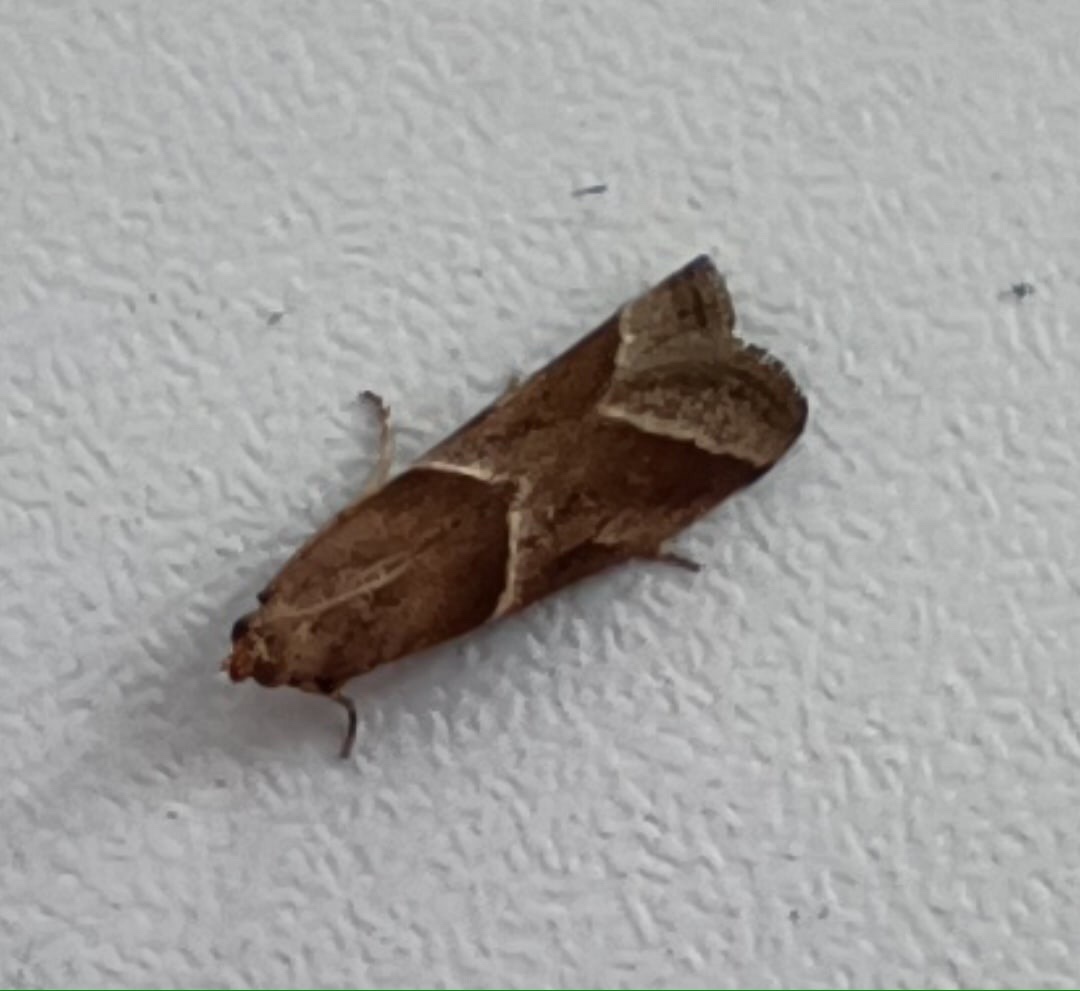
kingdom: Animalia
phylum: Arthropoda
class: Insecta
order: Lepidoptera
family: Pyralidae
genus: Nyctegretis
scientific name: Nyctegretis lineana
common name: Agate knot-horn
